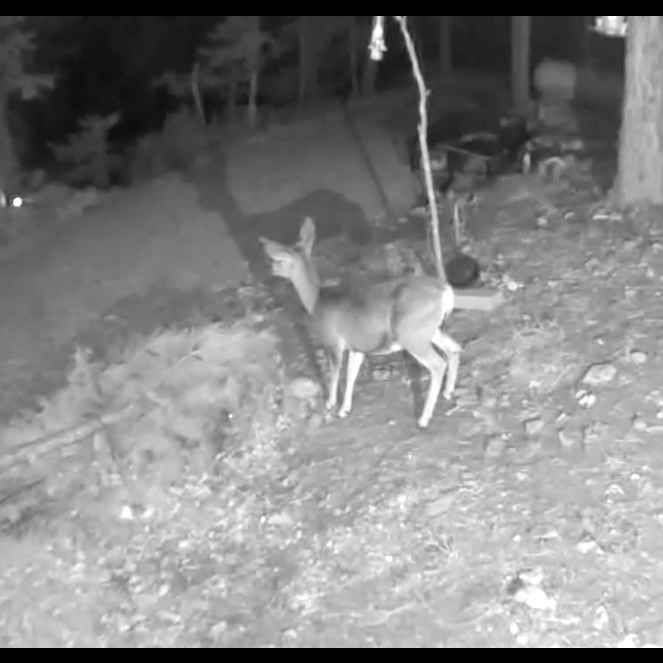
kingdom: Animalia
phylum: Chordata
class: Mammalia
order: Artiodactyla
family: Cervidae
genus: Odocoileus
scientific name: Odocoileus hemionus
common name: Mule deer
